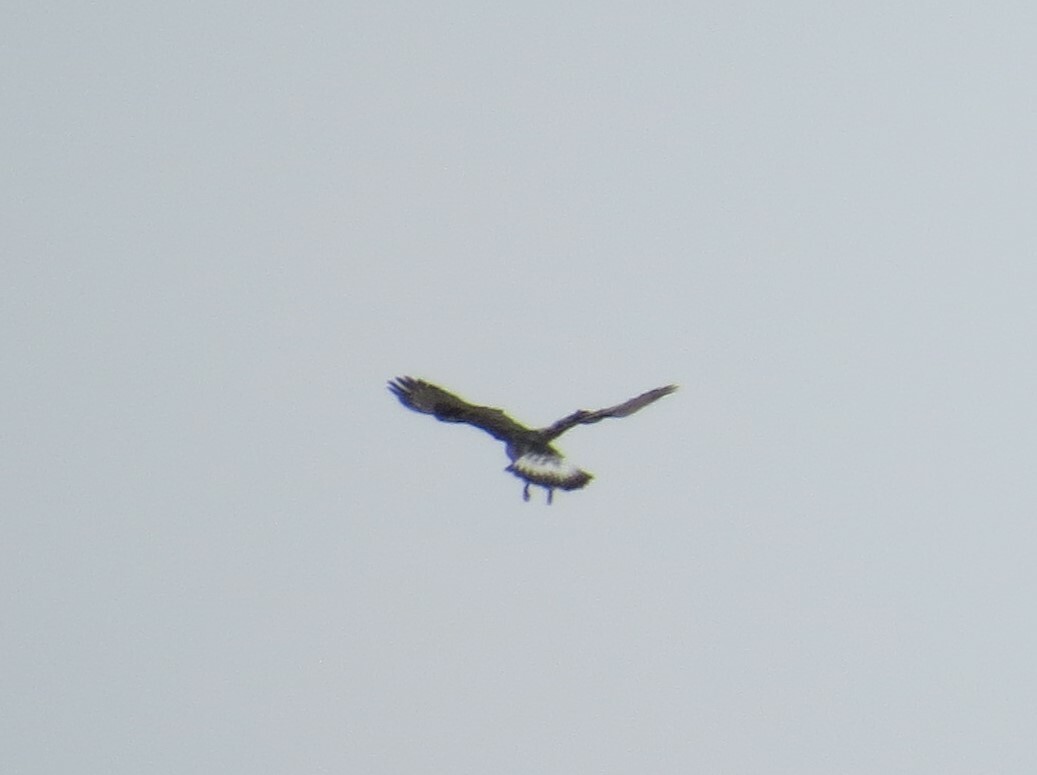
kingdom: Animalia
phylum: Chordata
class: Aves
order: Accipitriformes
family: Accipitridae
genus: Buteo
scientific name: Buteo lagopus
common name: Rough-legged buzzard
